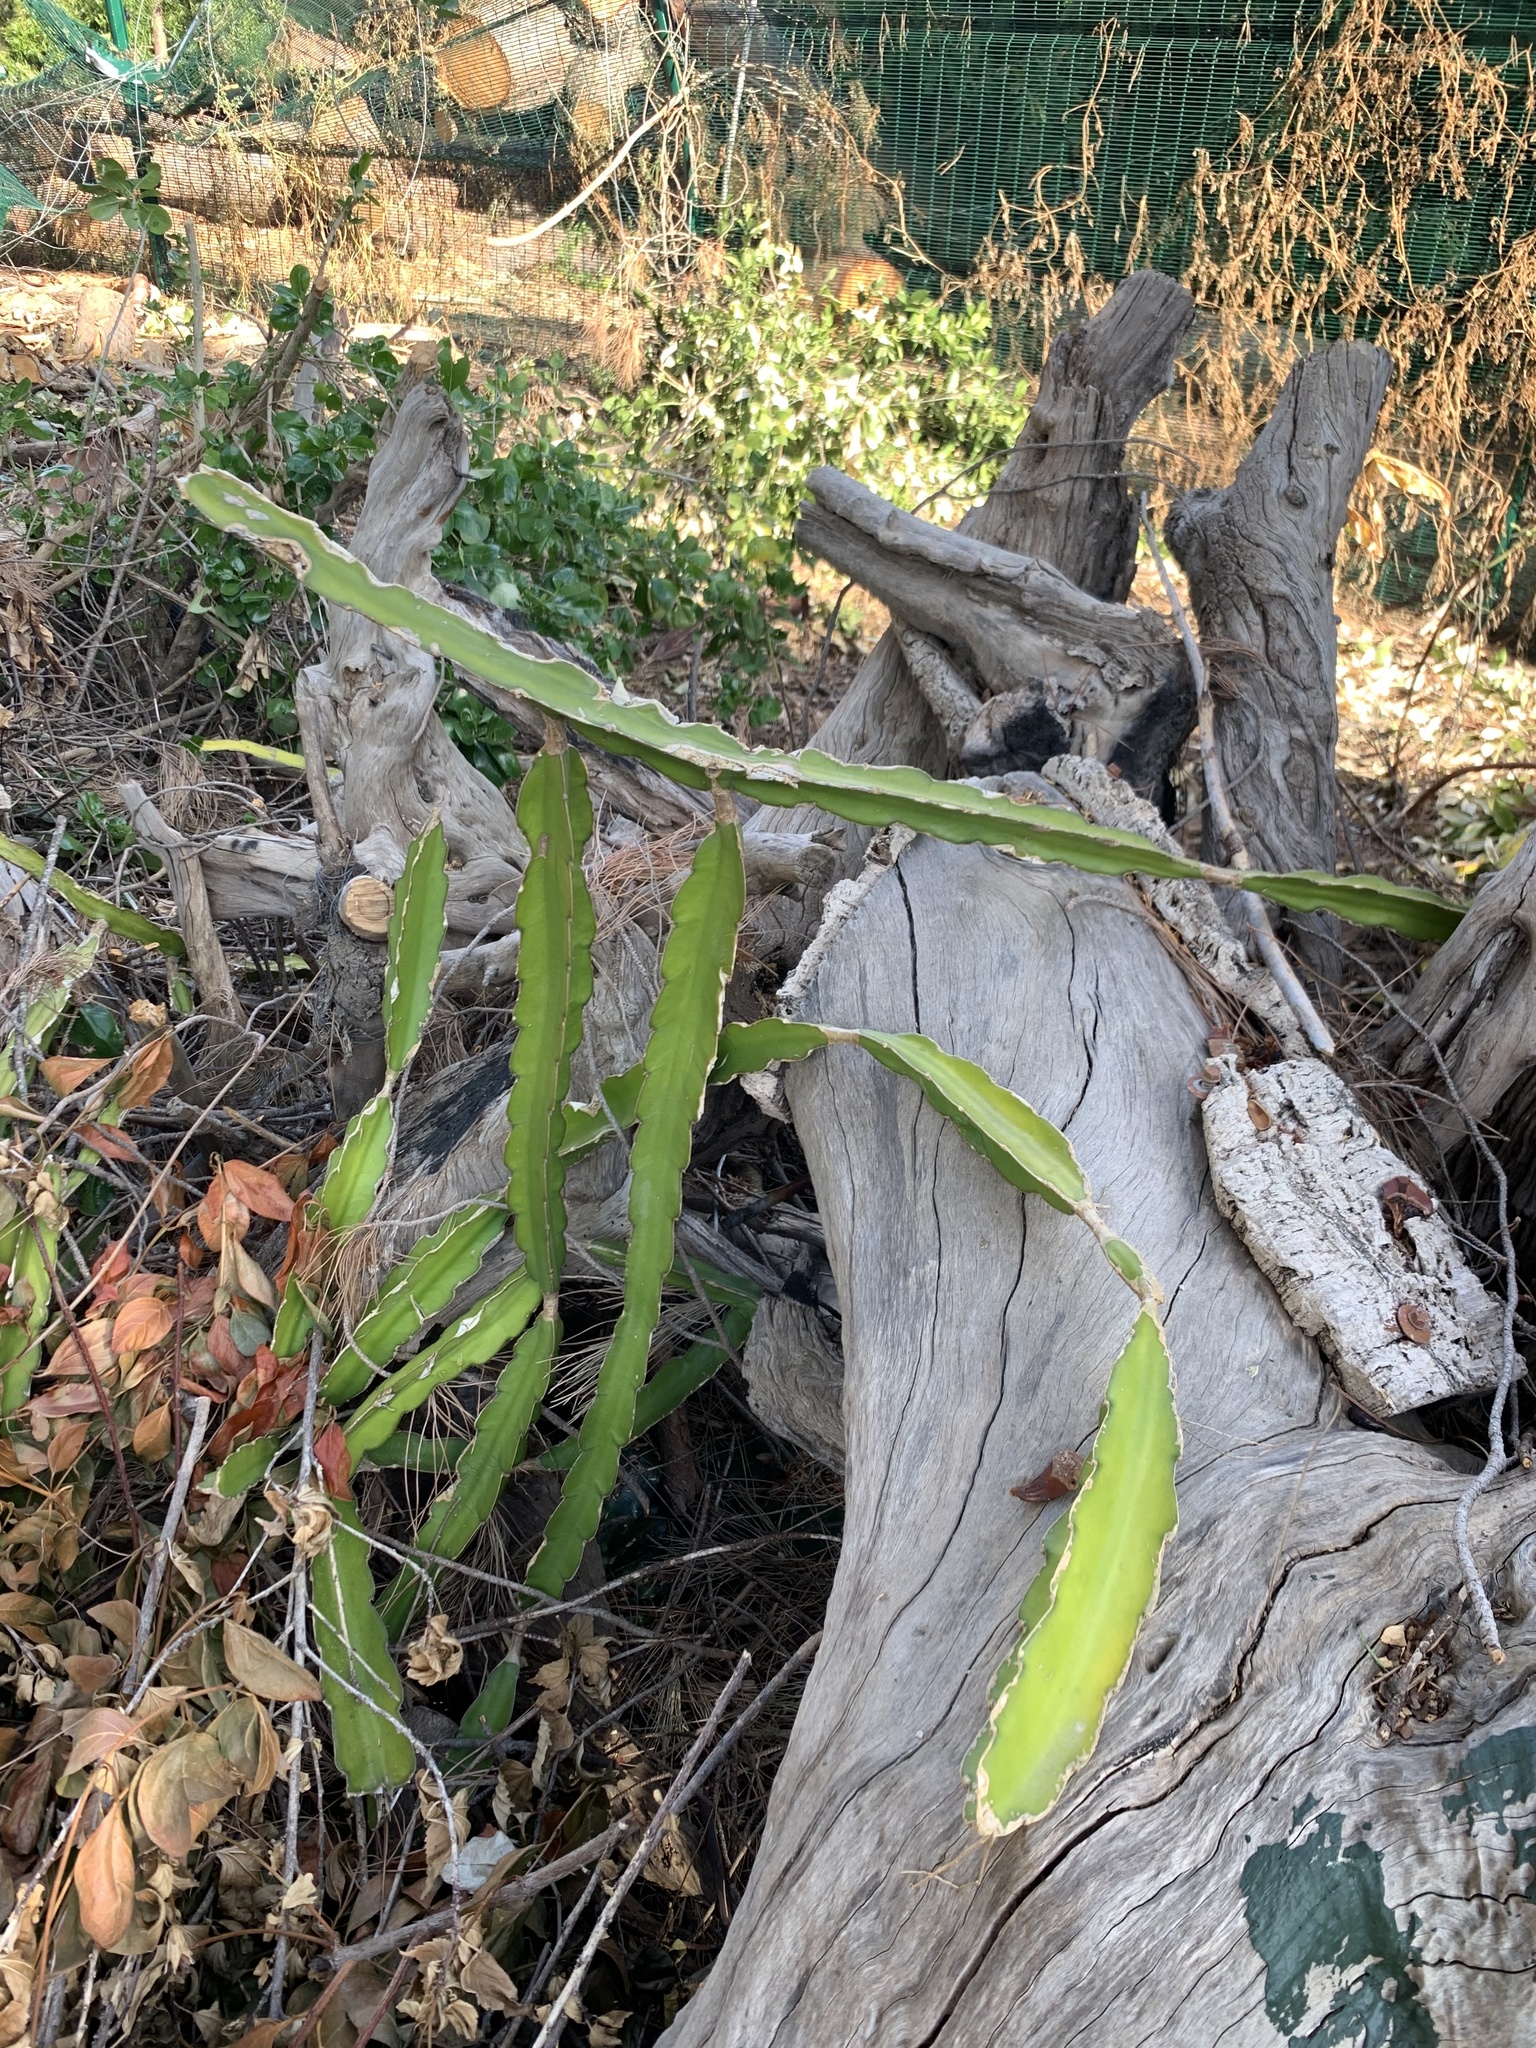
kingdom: Plantae
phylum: Tracheophyta
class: Magnoliopsida
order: Caryophyllales
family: Cactaceae
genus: Selenicereus
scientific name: Selenicereus undatus
